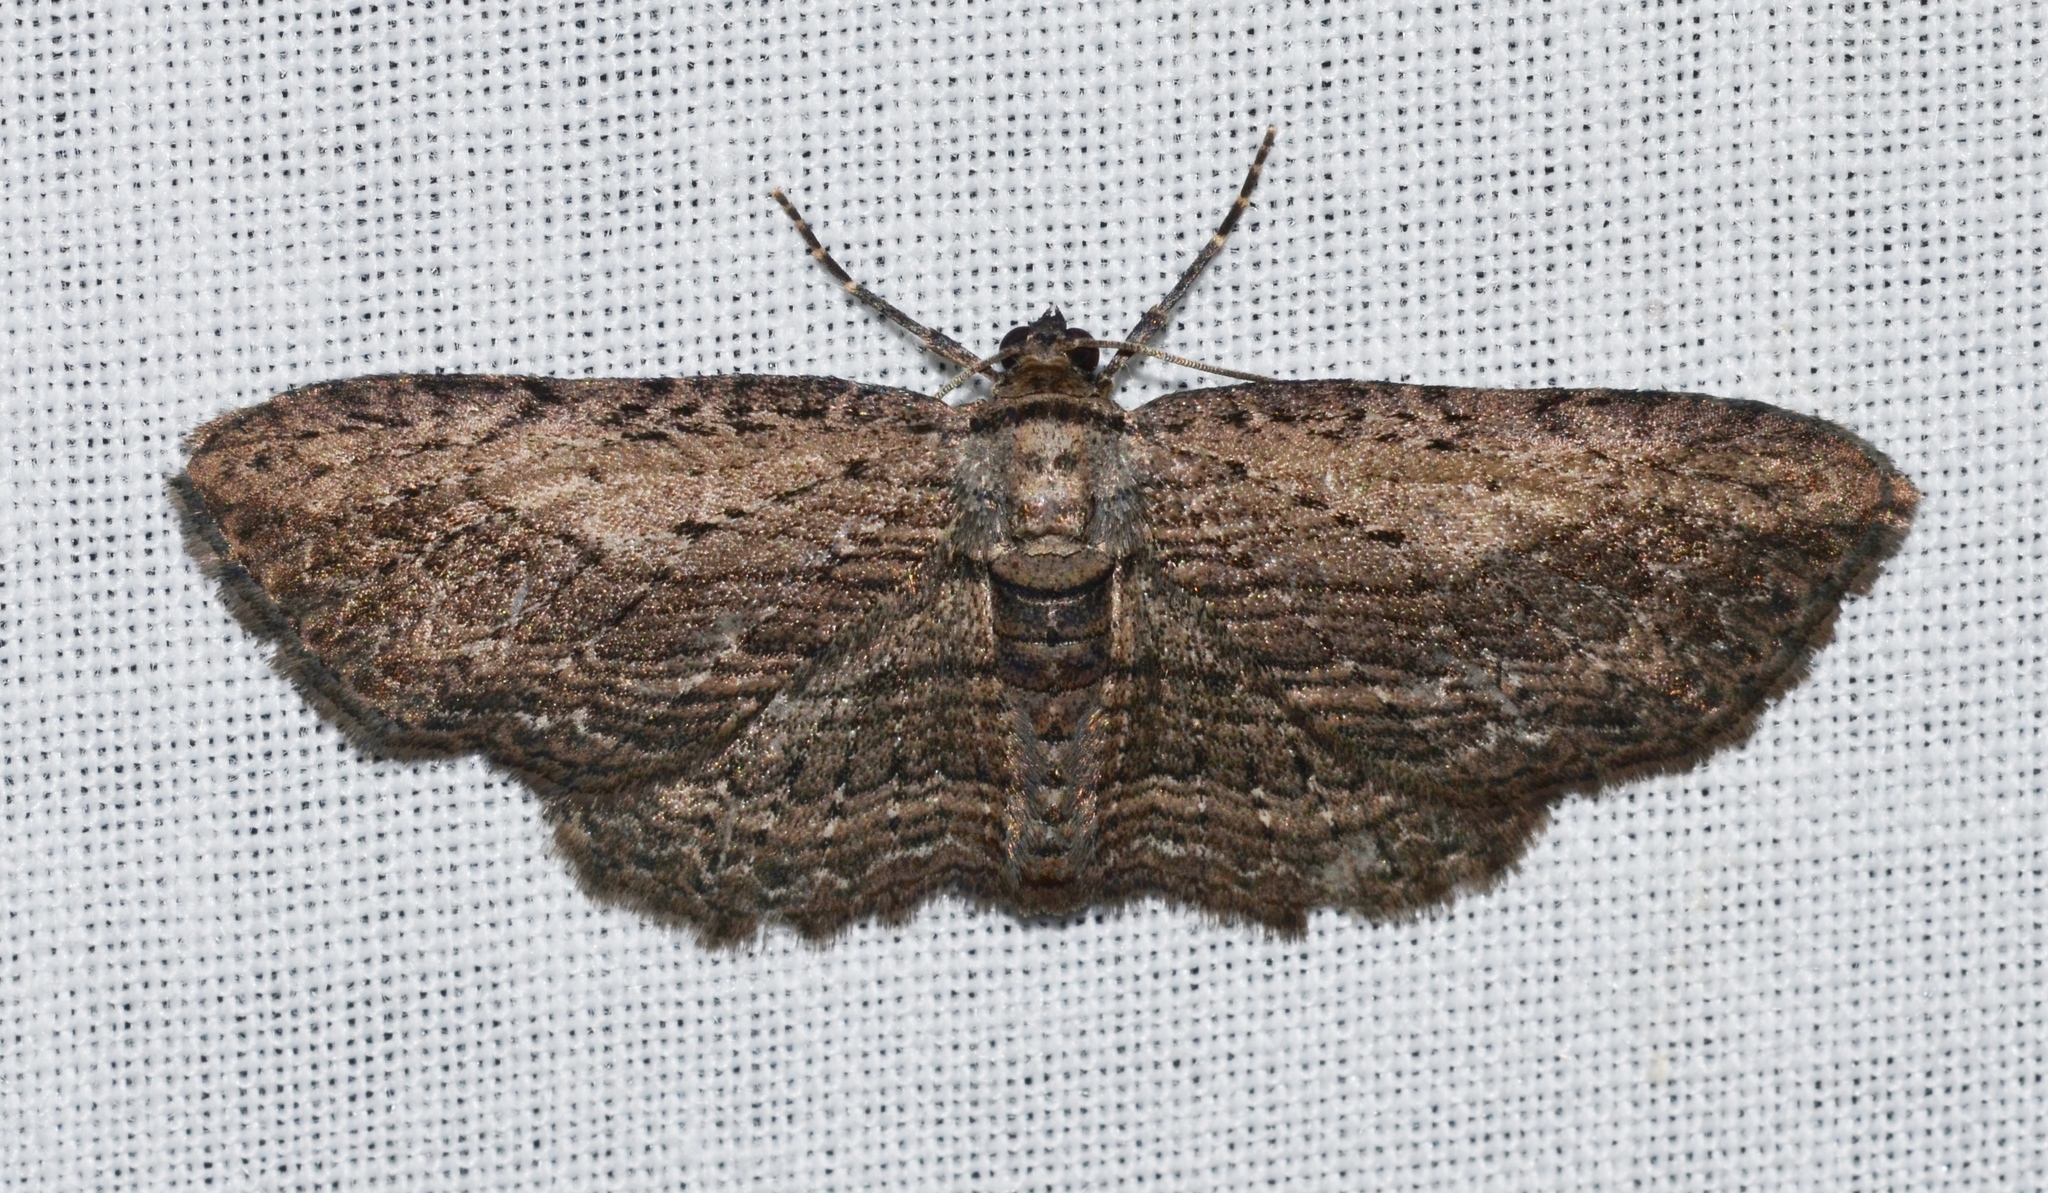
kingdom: Animalia
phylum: Arthropoda
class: Insecta
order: Lepidoptera
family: Geometridae
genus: Horisme
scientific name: Horisme intestinata
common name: Brown bark carpet
